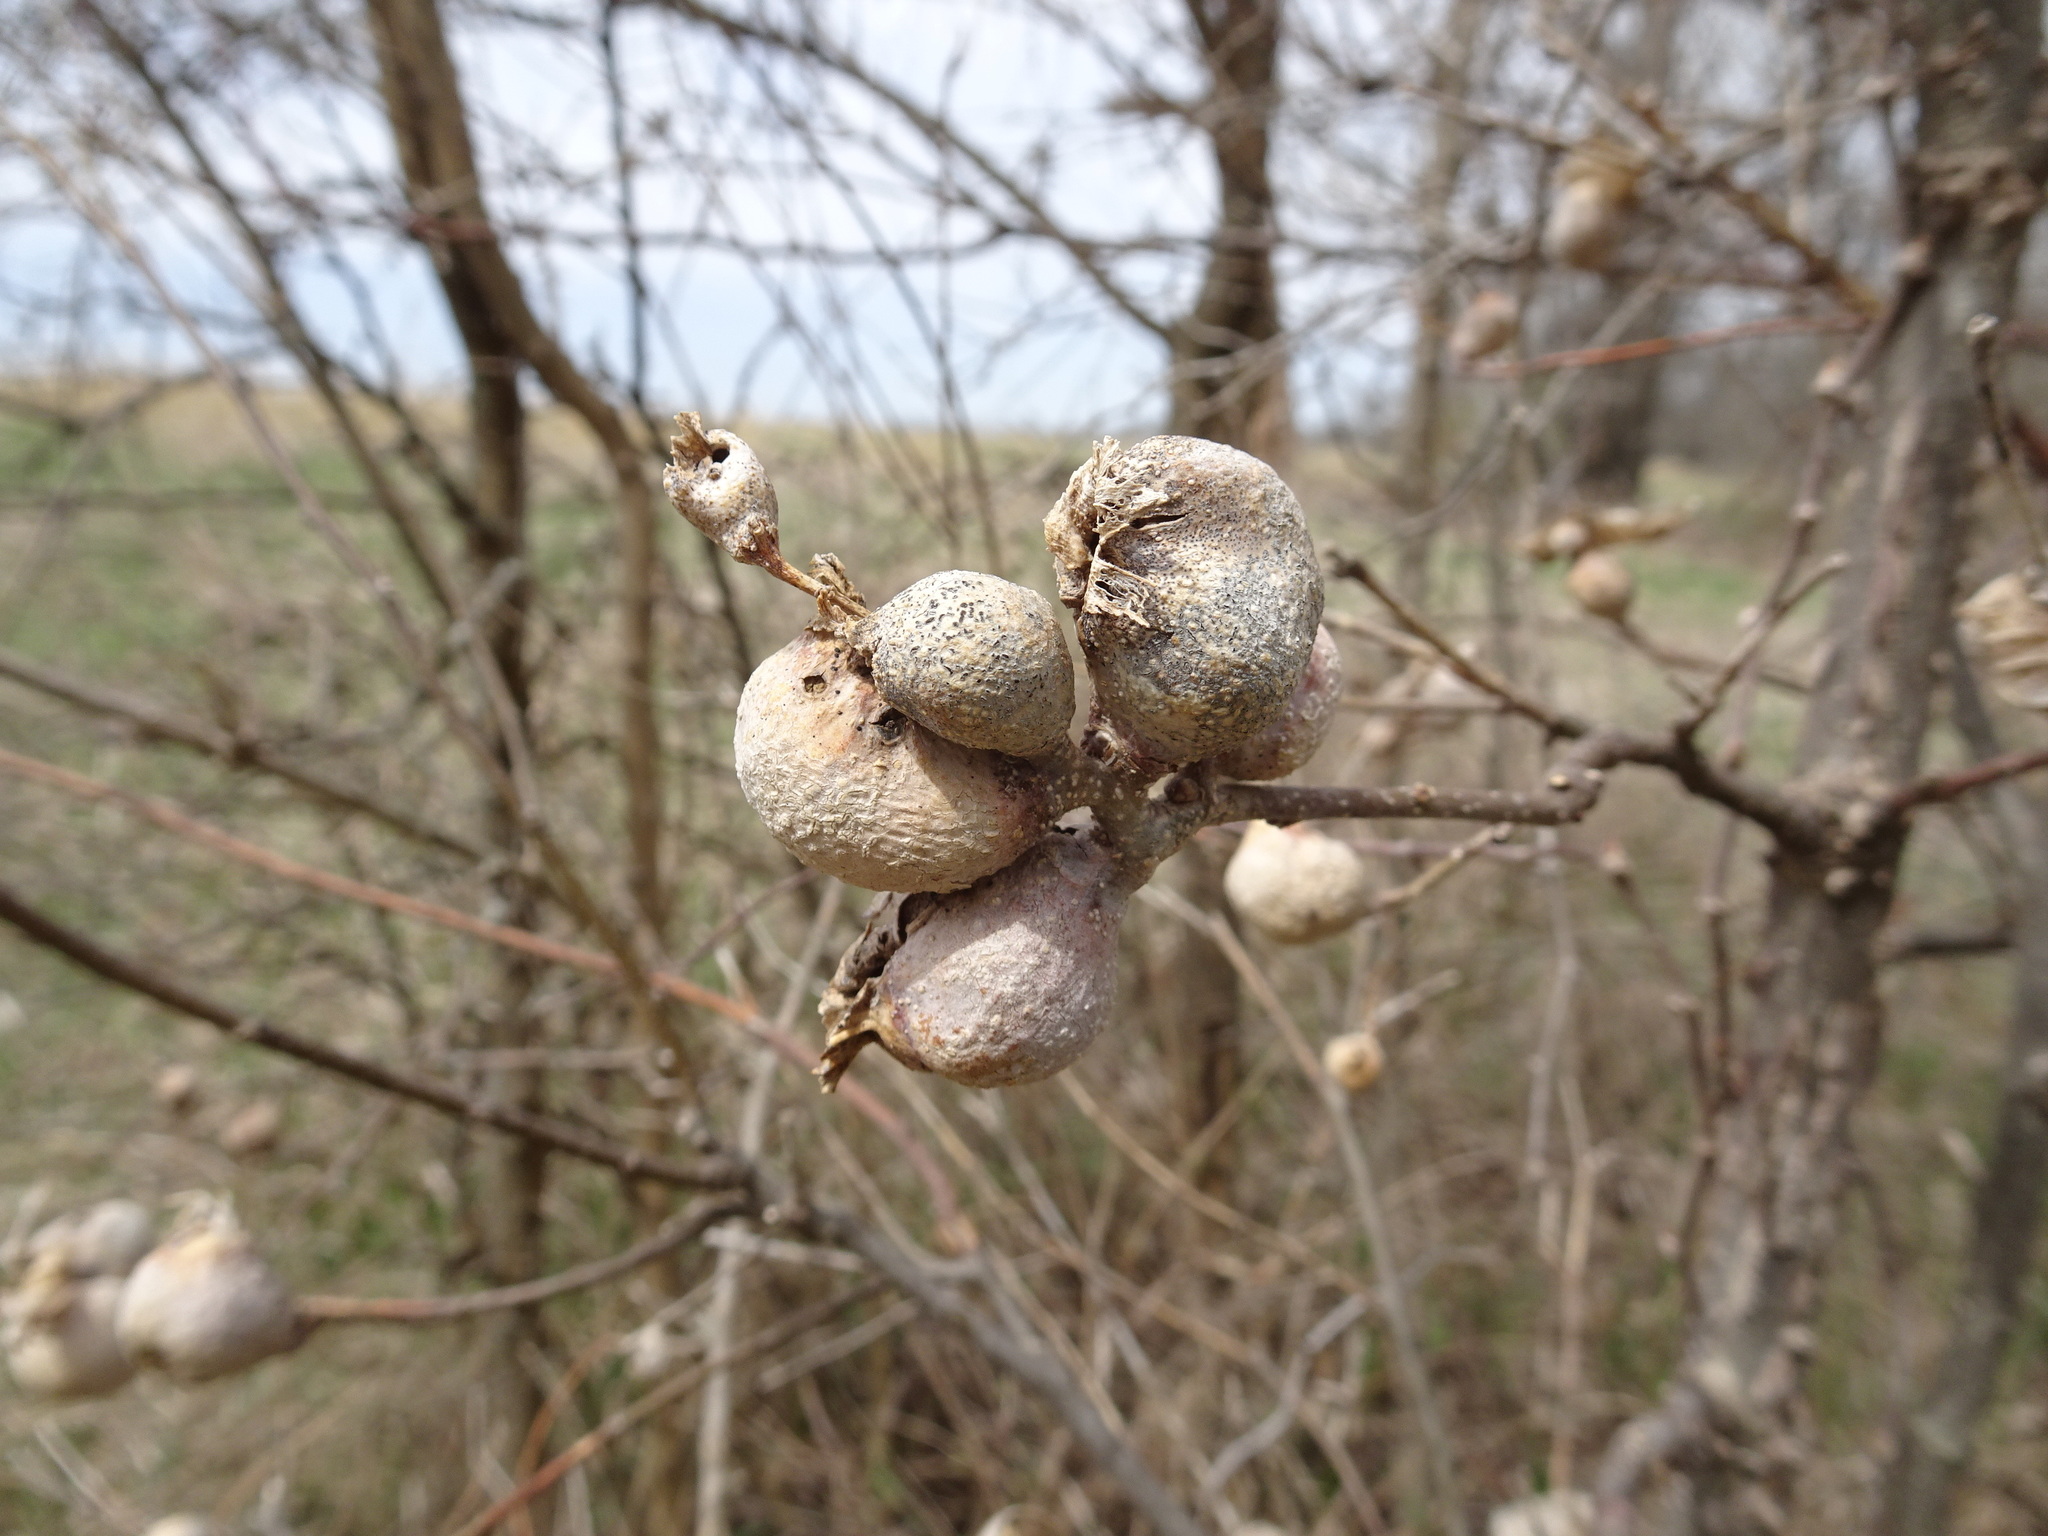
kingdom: Animalia
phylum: Arthropoda
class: Insecta
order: Hemiptera
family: Aphalaridae
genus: Pachypsylla
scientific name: Pachypsylla venusta
